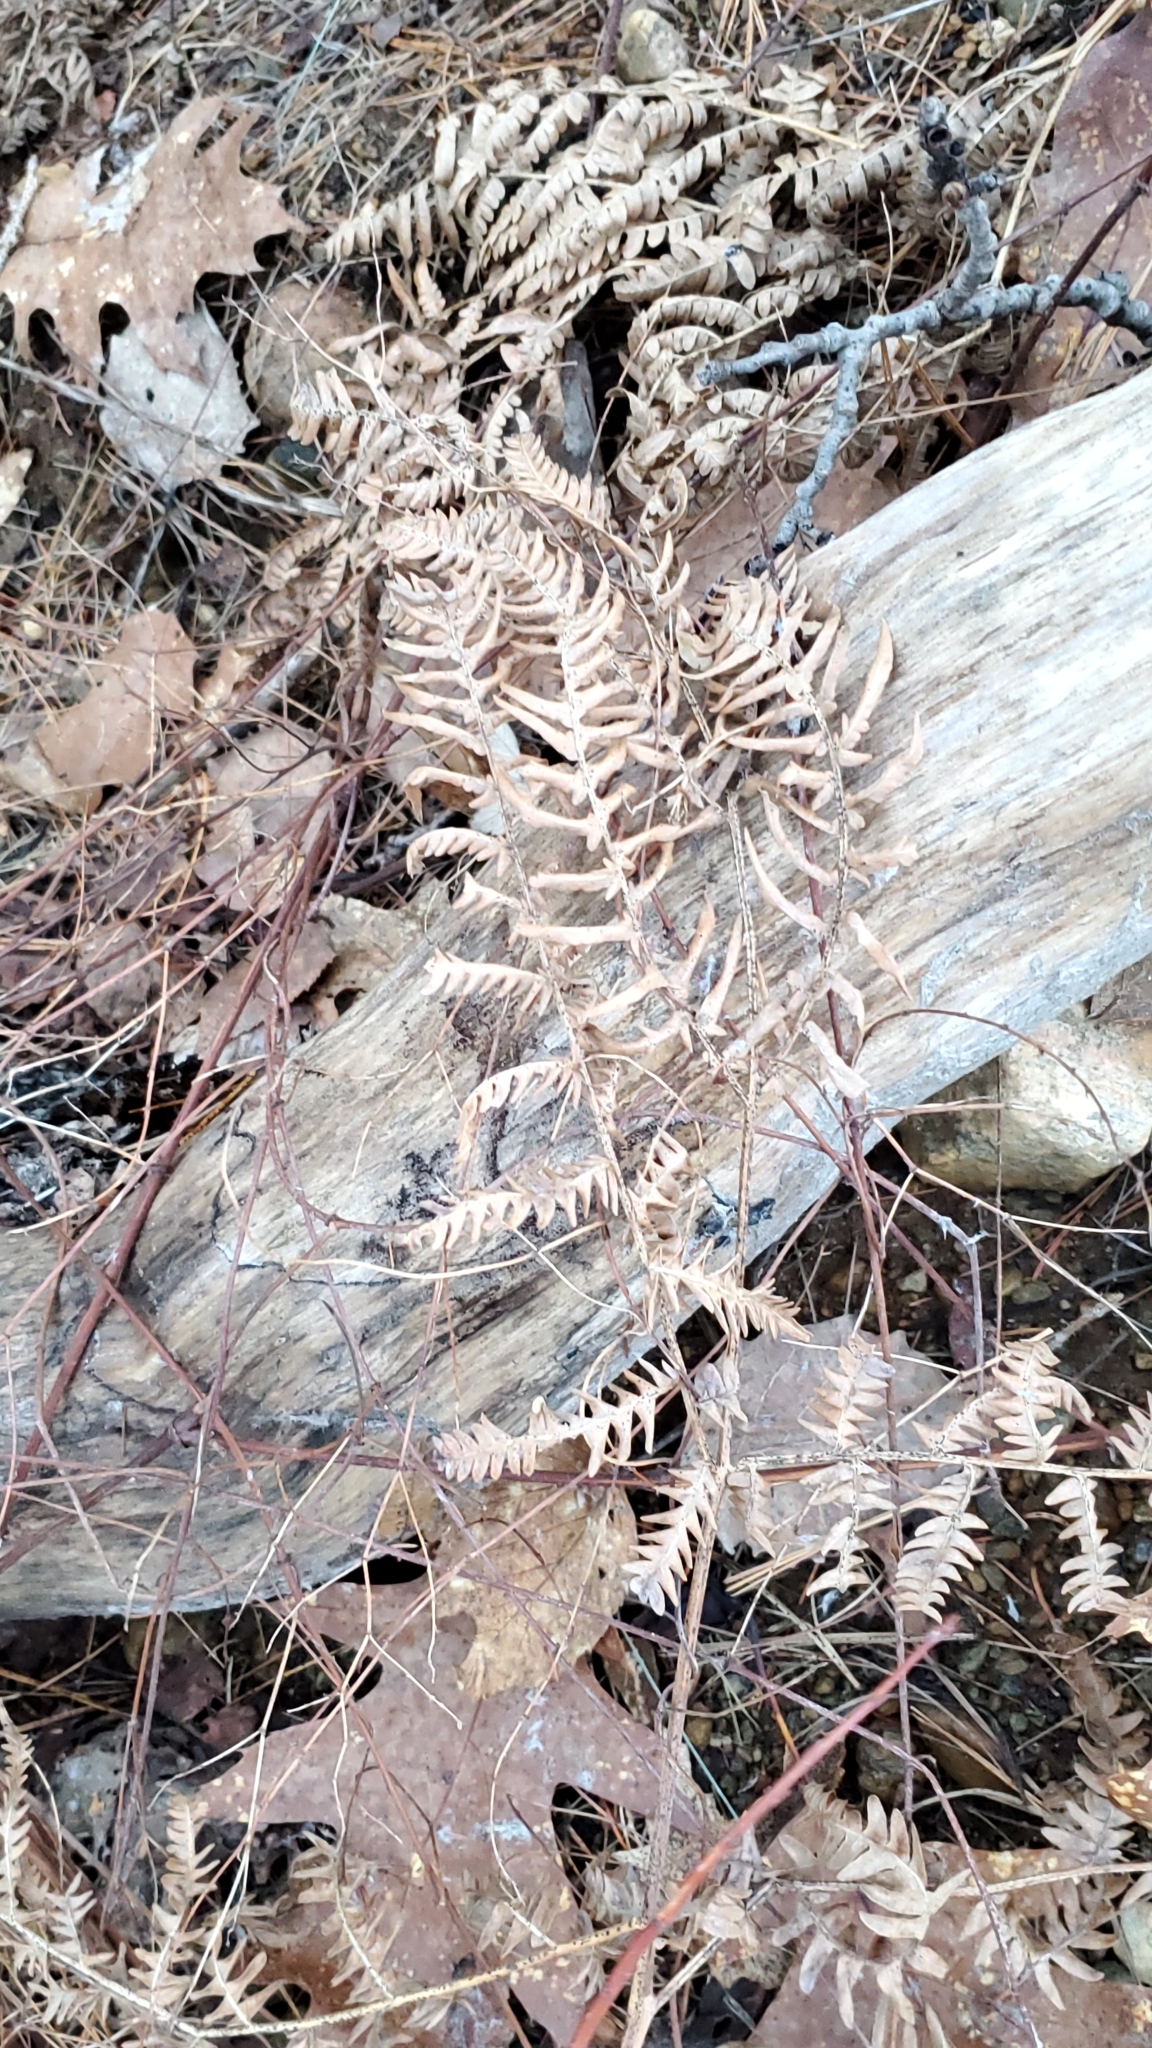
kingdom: Plantae
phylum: Tracheophyta
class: Polypodiopsida
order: Polypodiales
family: Dennstaedtiaceae
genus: Pteridium
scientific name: Pteridium aquilinum
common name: Bracken
